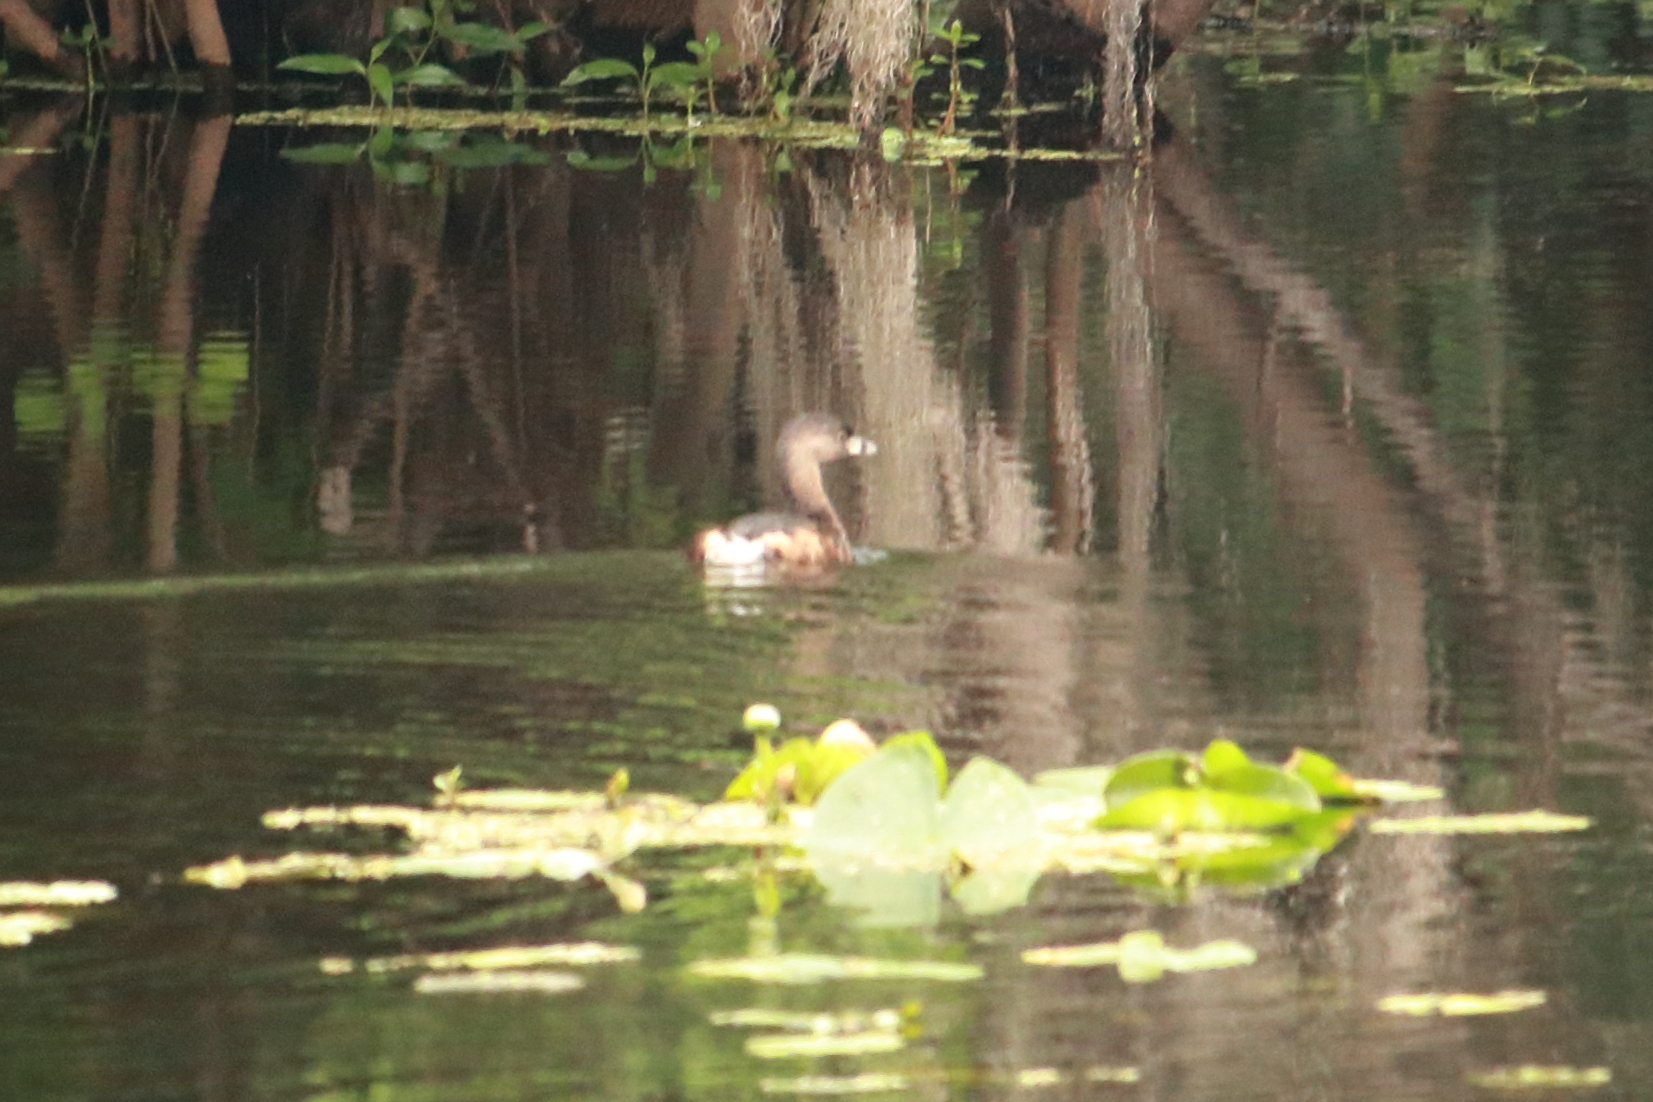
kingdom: Animalia
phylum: Chordata
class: Aves
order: Podicipediformes
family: Podicipedidae
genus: Podilymbus
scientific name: Podilymbus podiceps
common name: Pied-billed grebe
